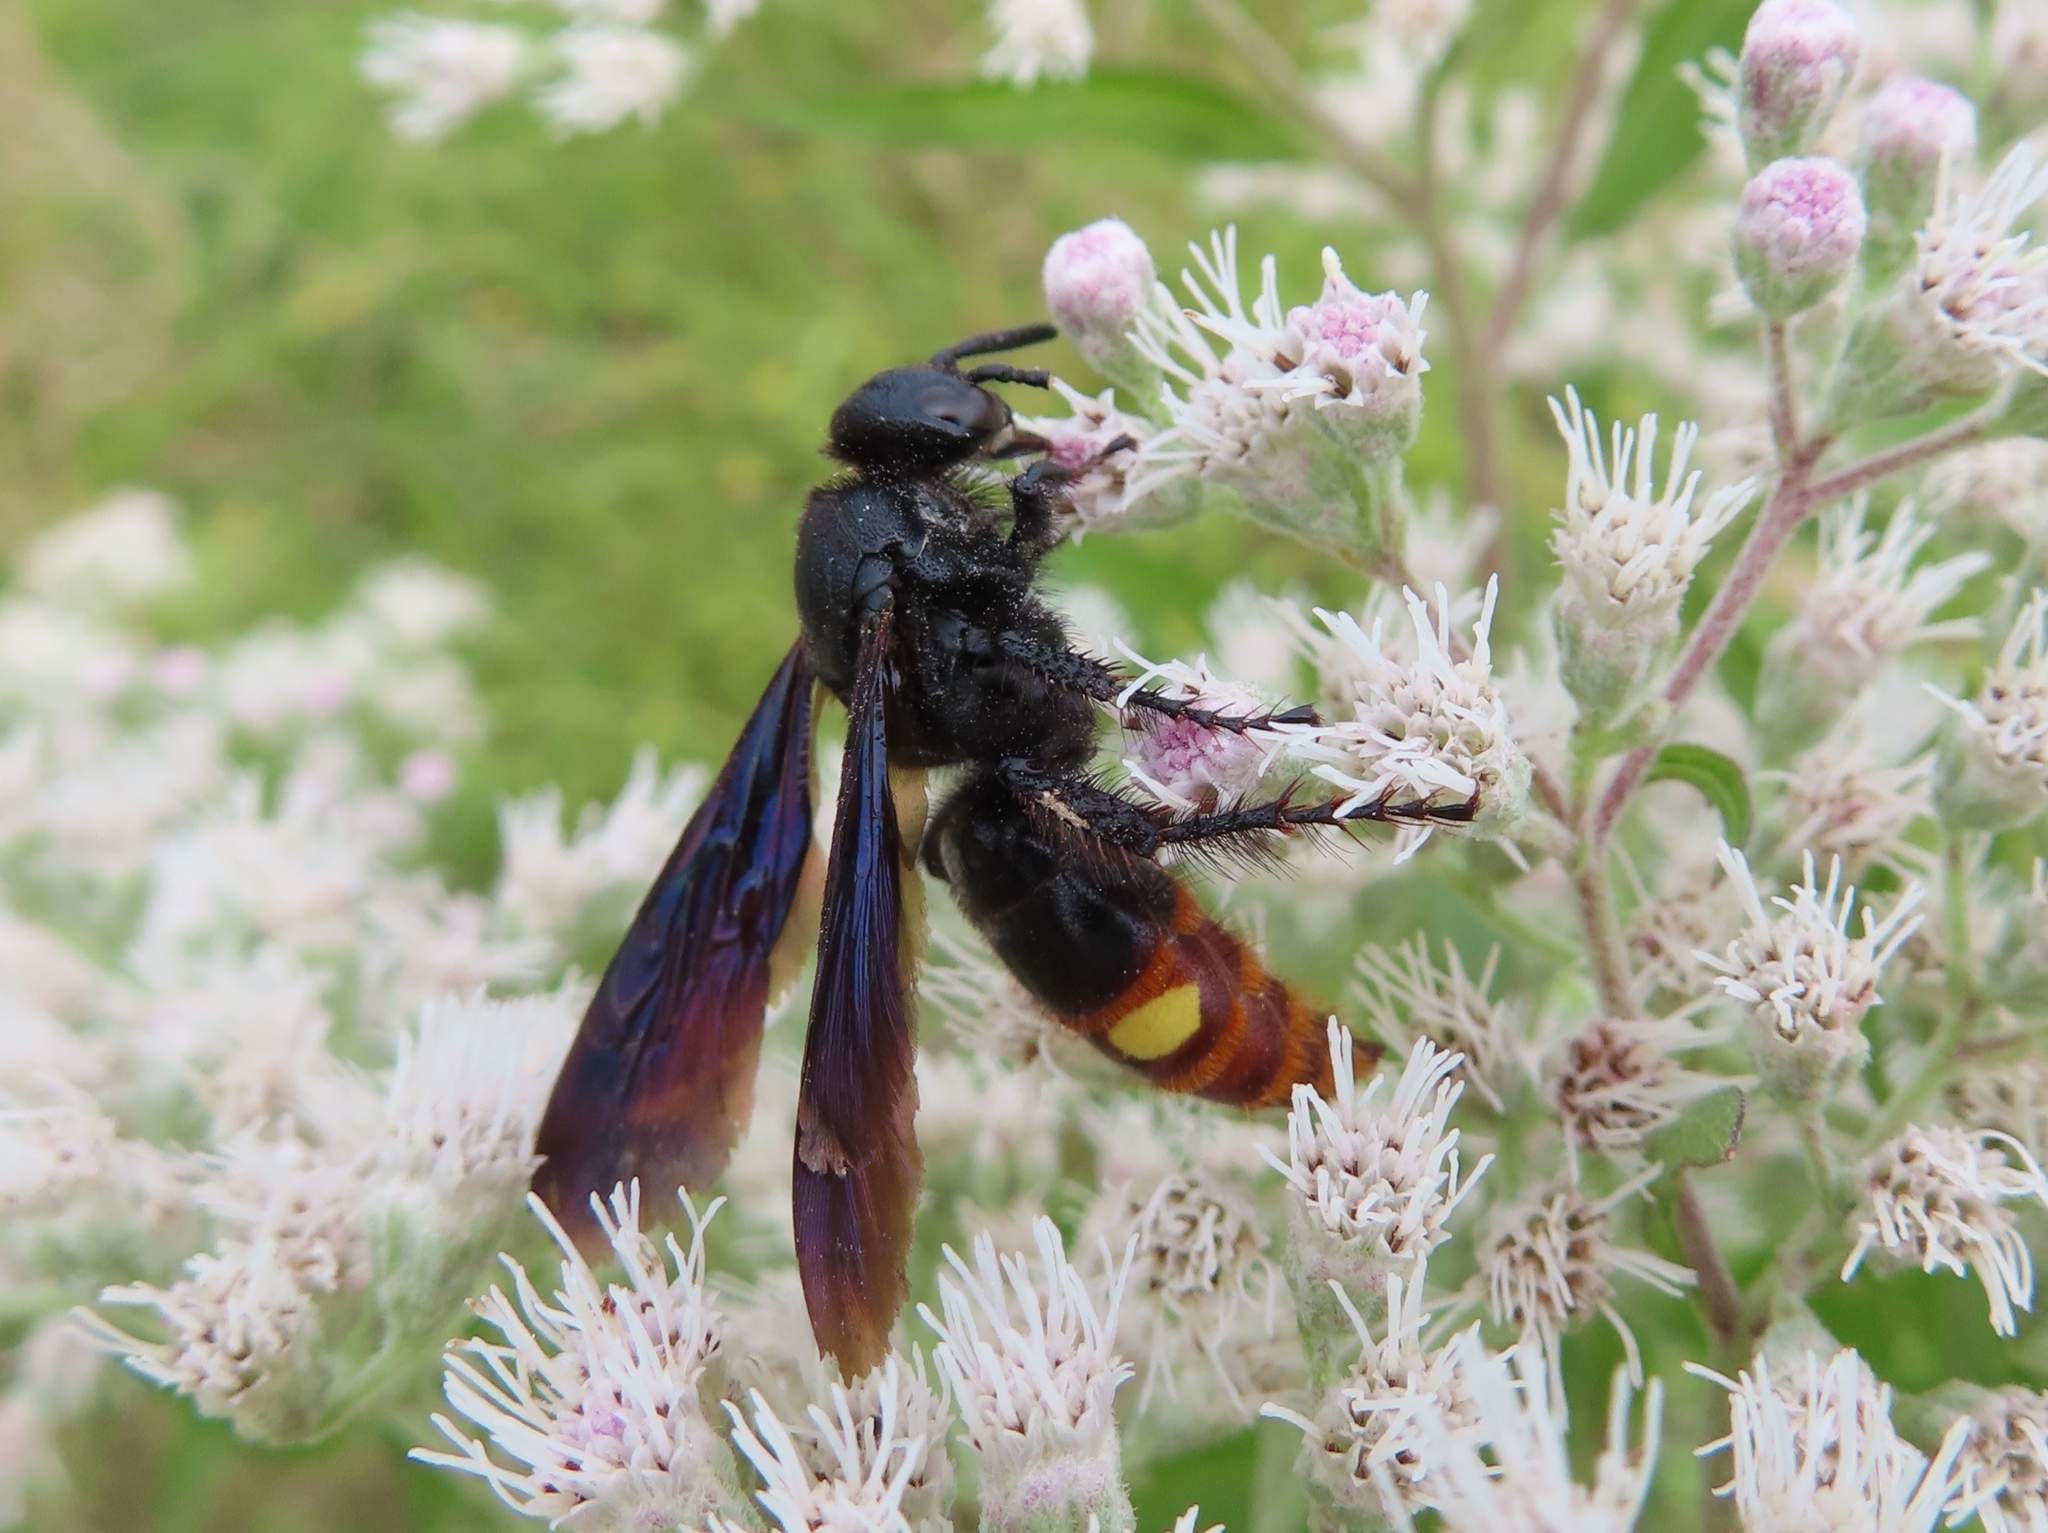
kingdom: Animalia
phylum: Arthropoda
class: Insecta
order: Hymenoptera
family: Scoliidae
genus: Scolia
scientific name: Scolia dubia
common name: Blue-winged scoliid wasp
